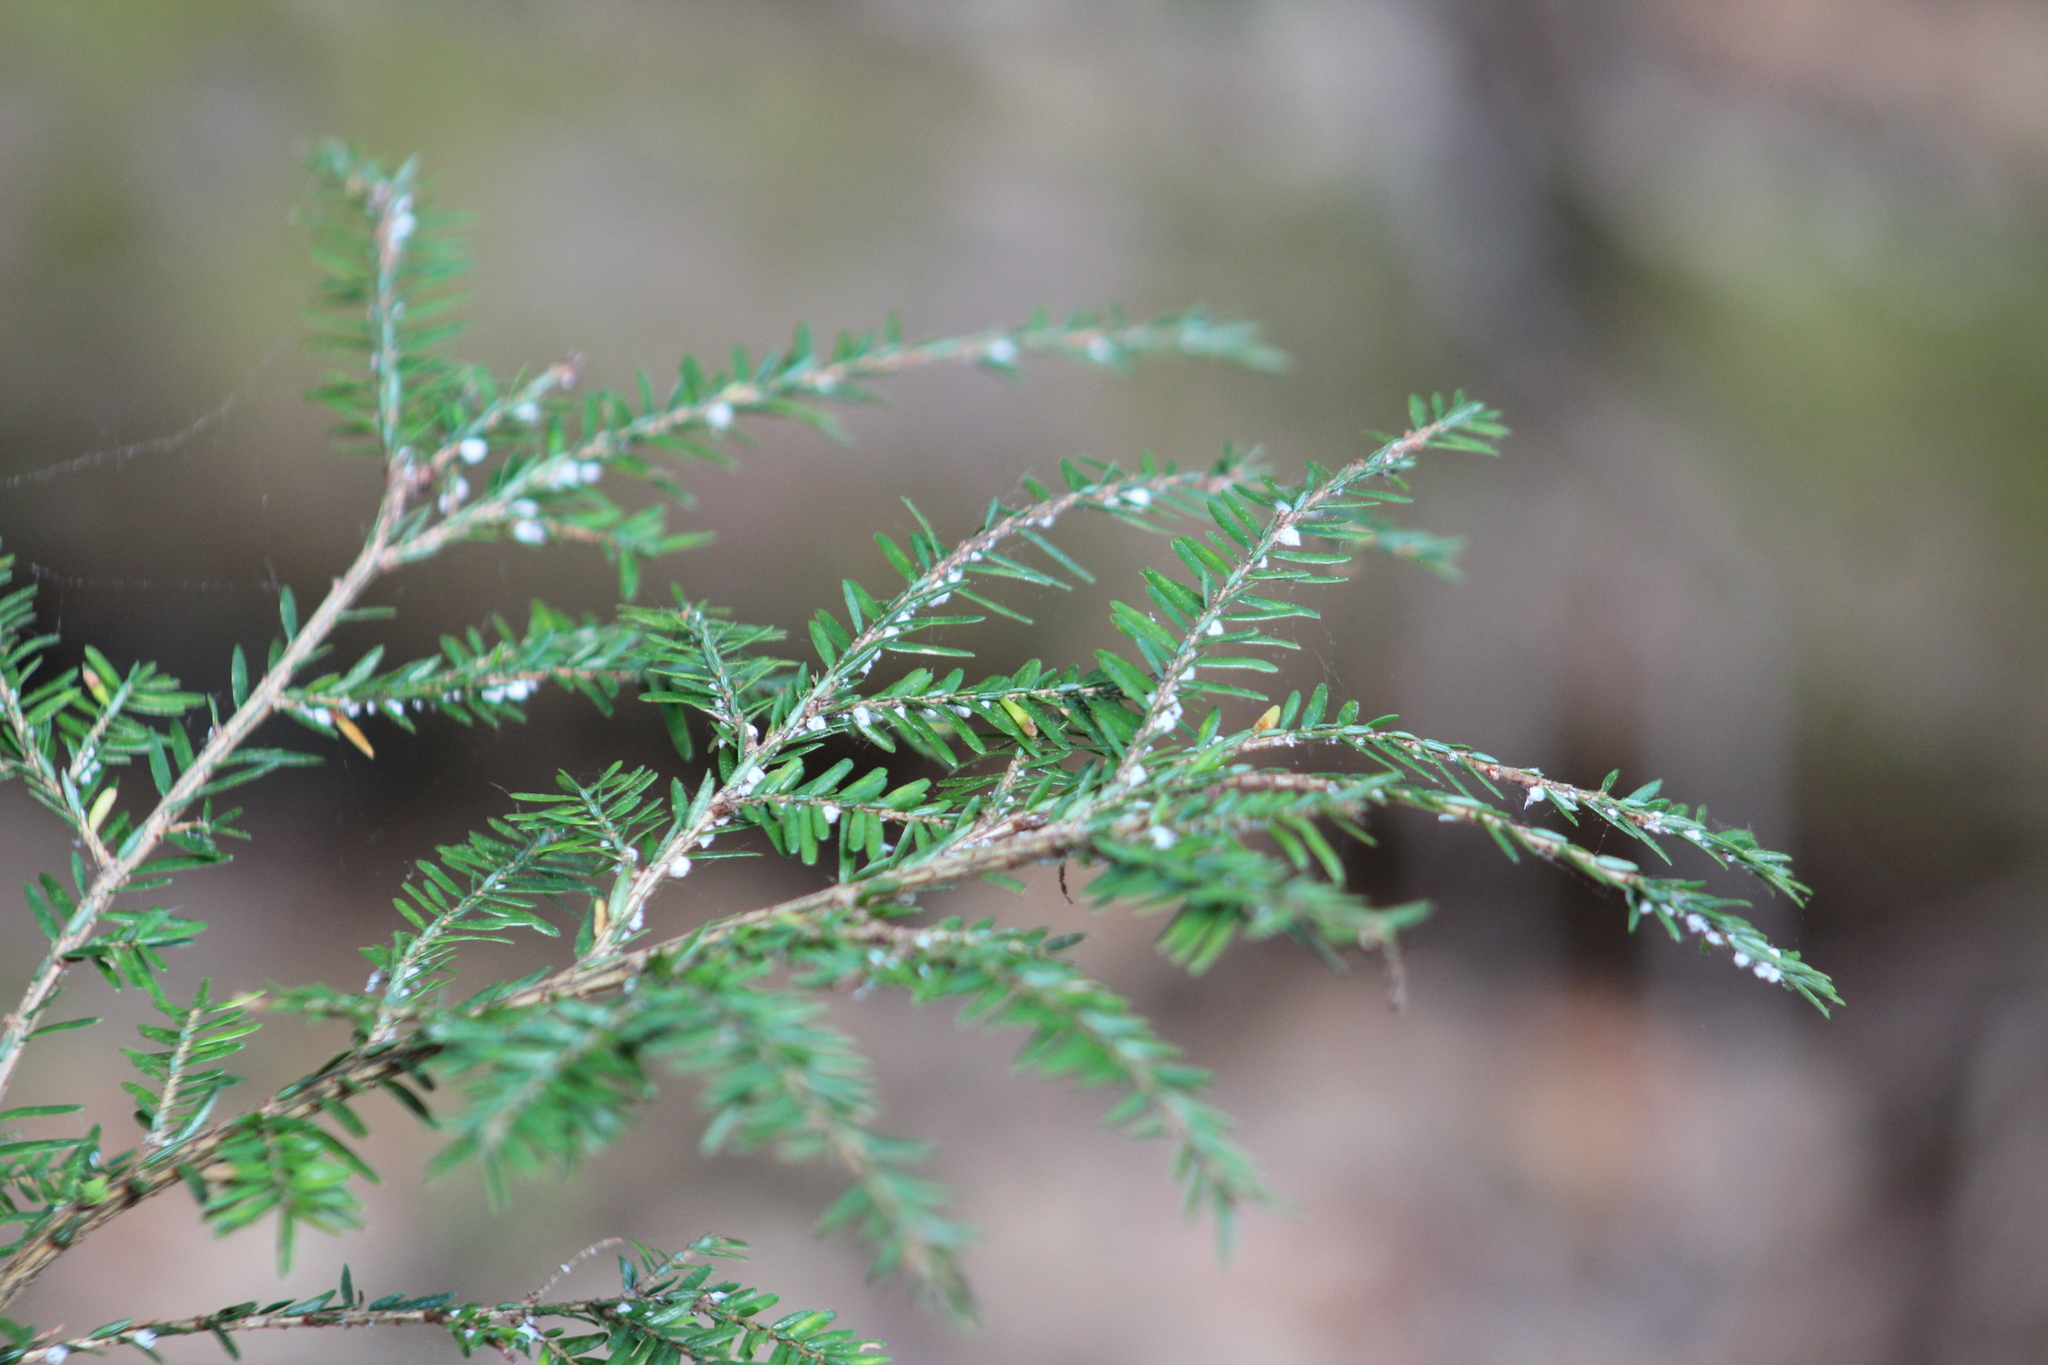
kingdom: Animalia
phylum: Arthropoda
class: Insecta
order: Hemiptera
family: Adelgidae
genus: Adelges
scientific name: Adelges tsugae
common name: Hemlock woolly adelgid
